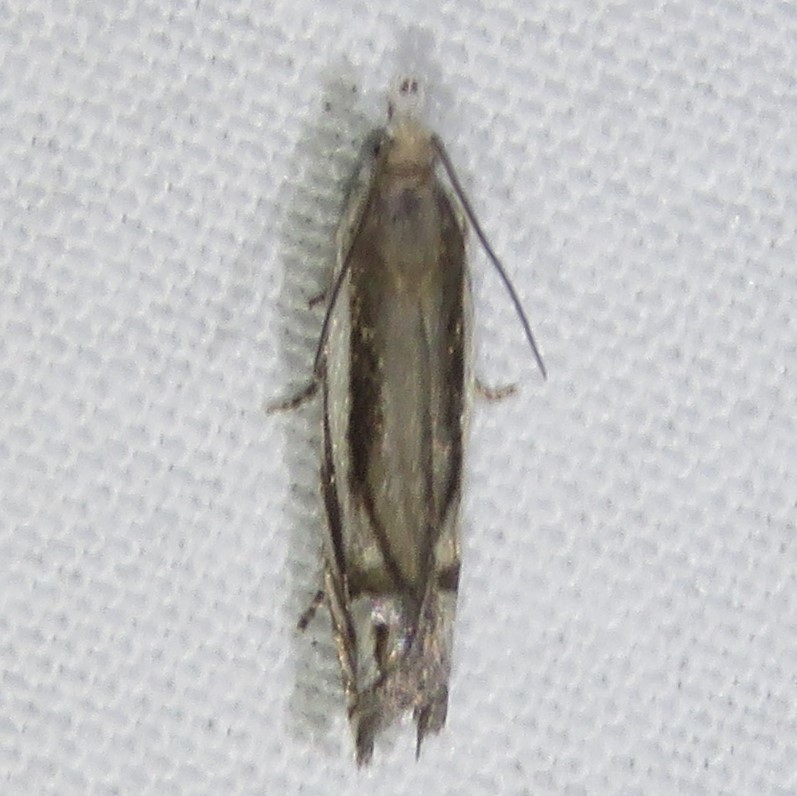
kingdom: Animalia
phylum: Arthropoda
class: Insecta
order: Lepidoptera
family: Tortricidae
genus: Eucosma
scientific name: Eucosma striatana
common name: Striated eucosma moth
